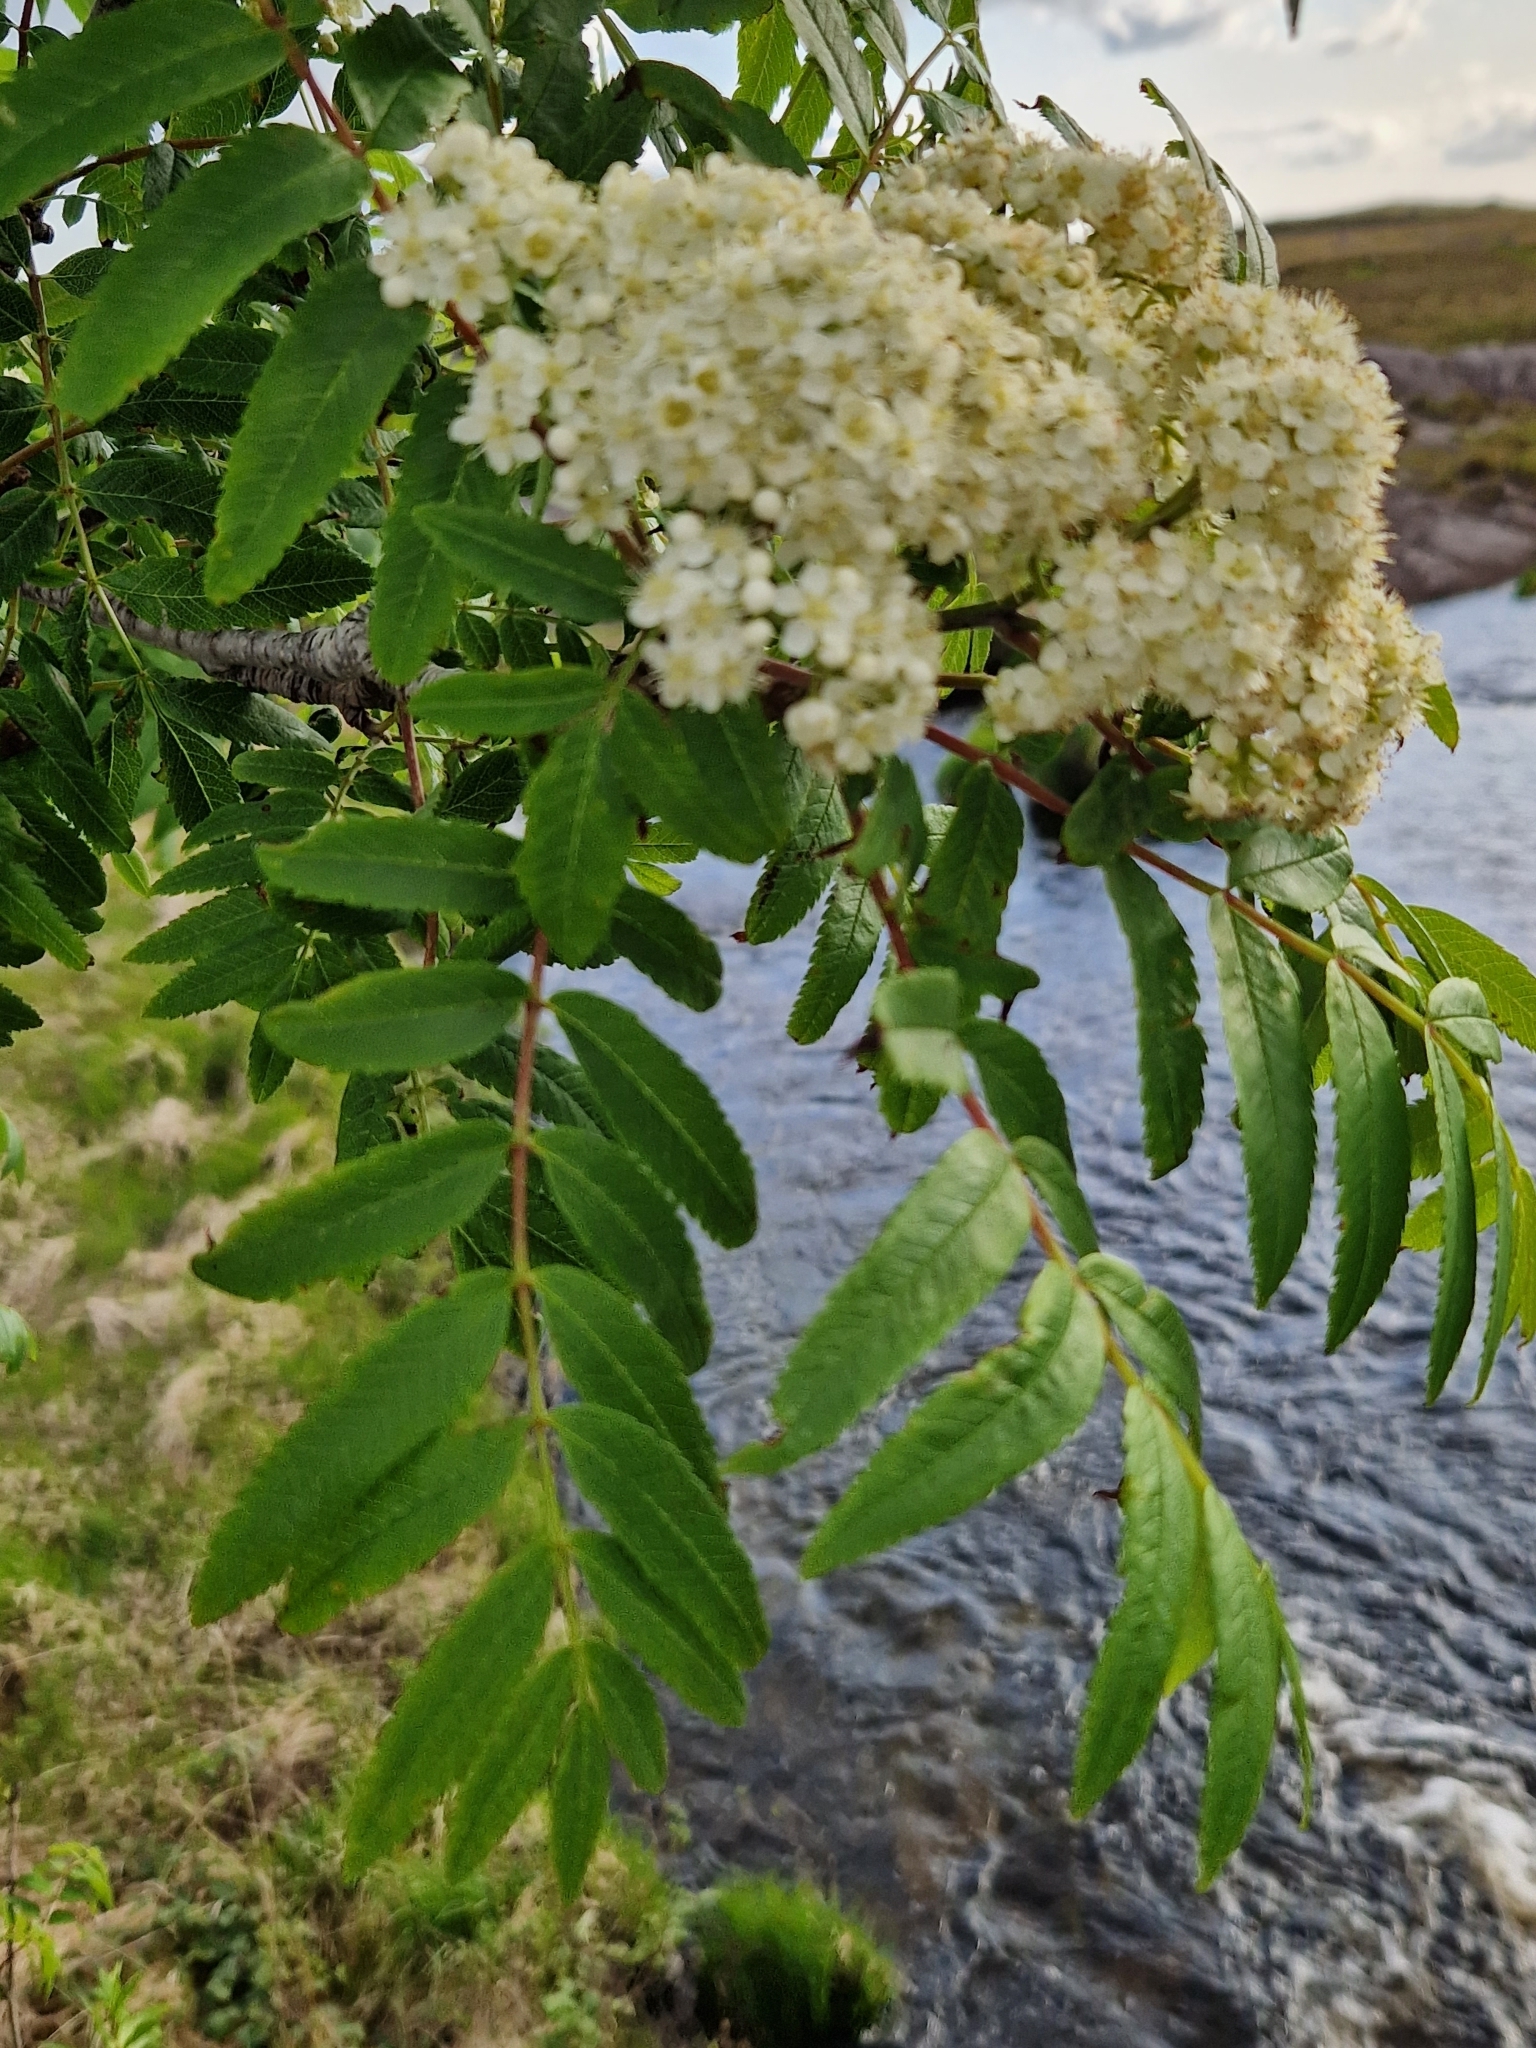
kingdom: Plantae
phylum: Tracheophyta
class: Magnoliopsida
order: Rosales
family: Rosaceae
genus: Sorbus
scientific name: Sorbus aucuparia
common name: Rowan
